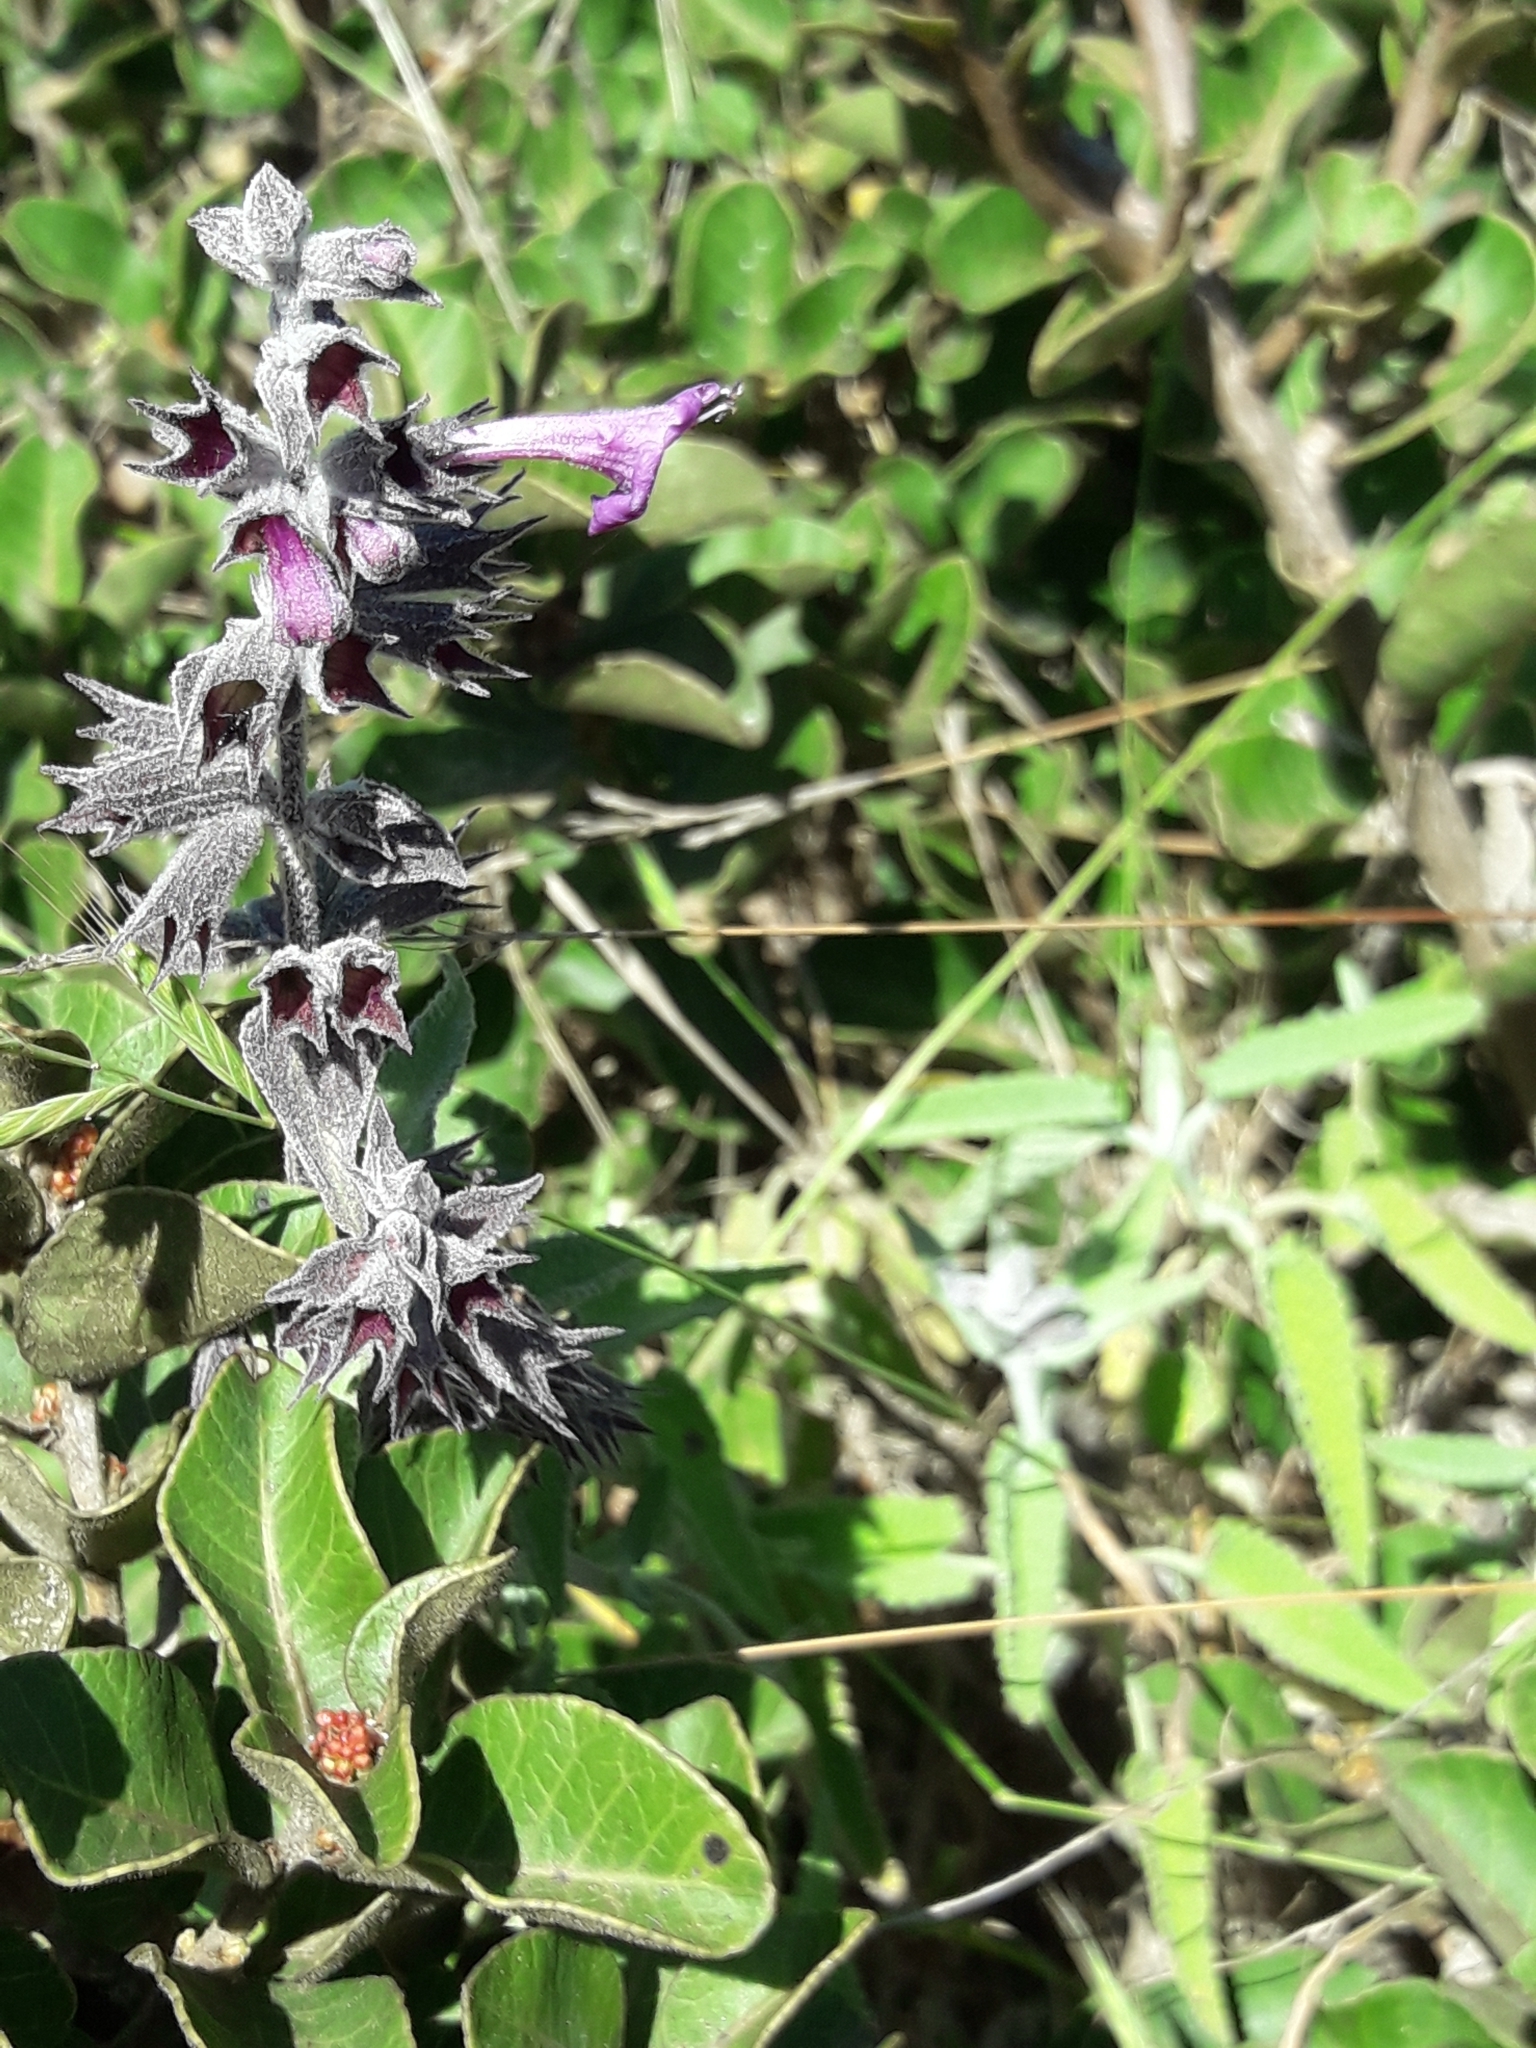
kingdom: Plantae
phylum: Tracheophyta
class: Magnoliopsida
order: Lamiales
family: Lamiaceae
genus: Lepechinia
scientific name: Lepechinia salviae
